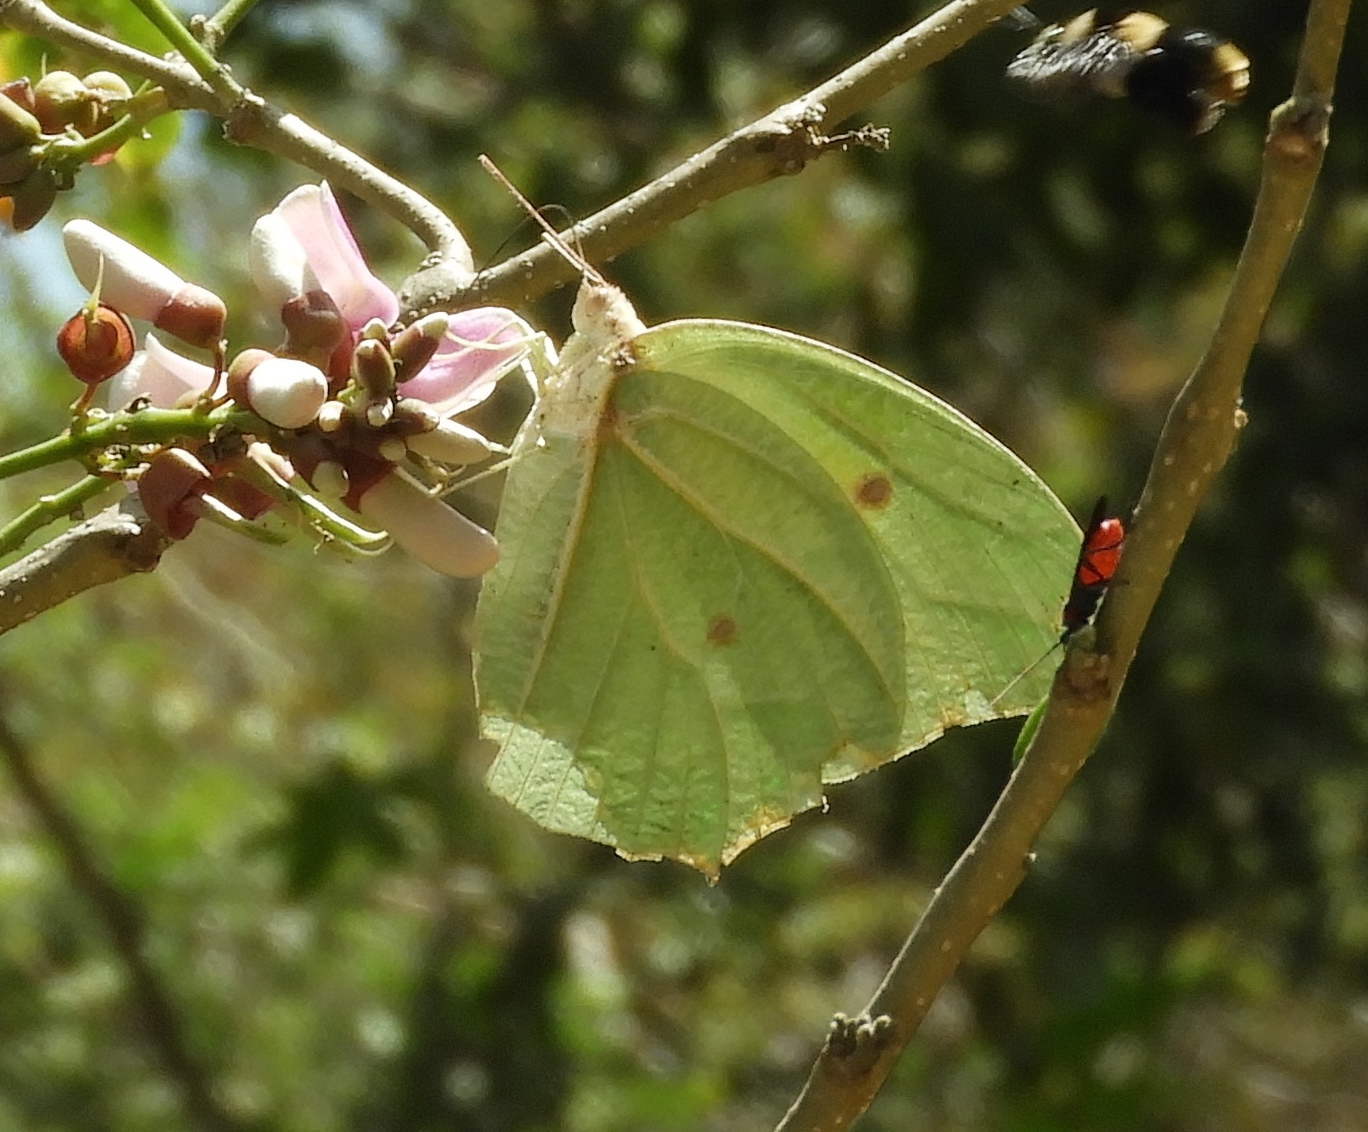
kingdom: Animalia
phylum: Arthropoda
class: Insecta
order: Lepidoptera
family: Pieridae
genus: Anteos
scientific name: Anteos clorinde
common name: White angled sulphur
